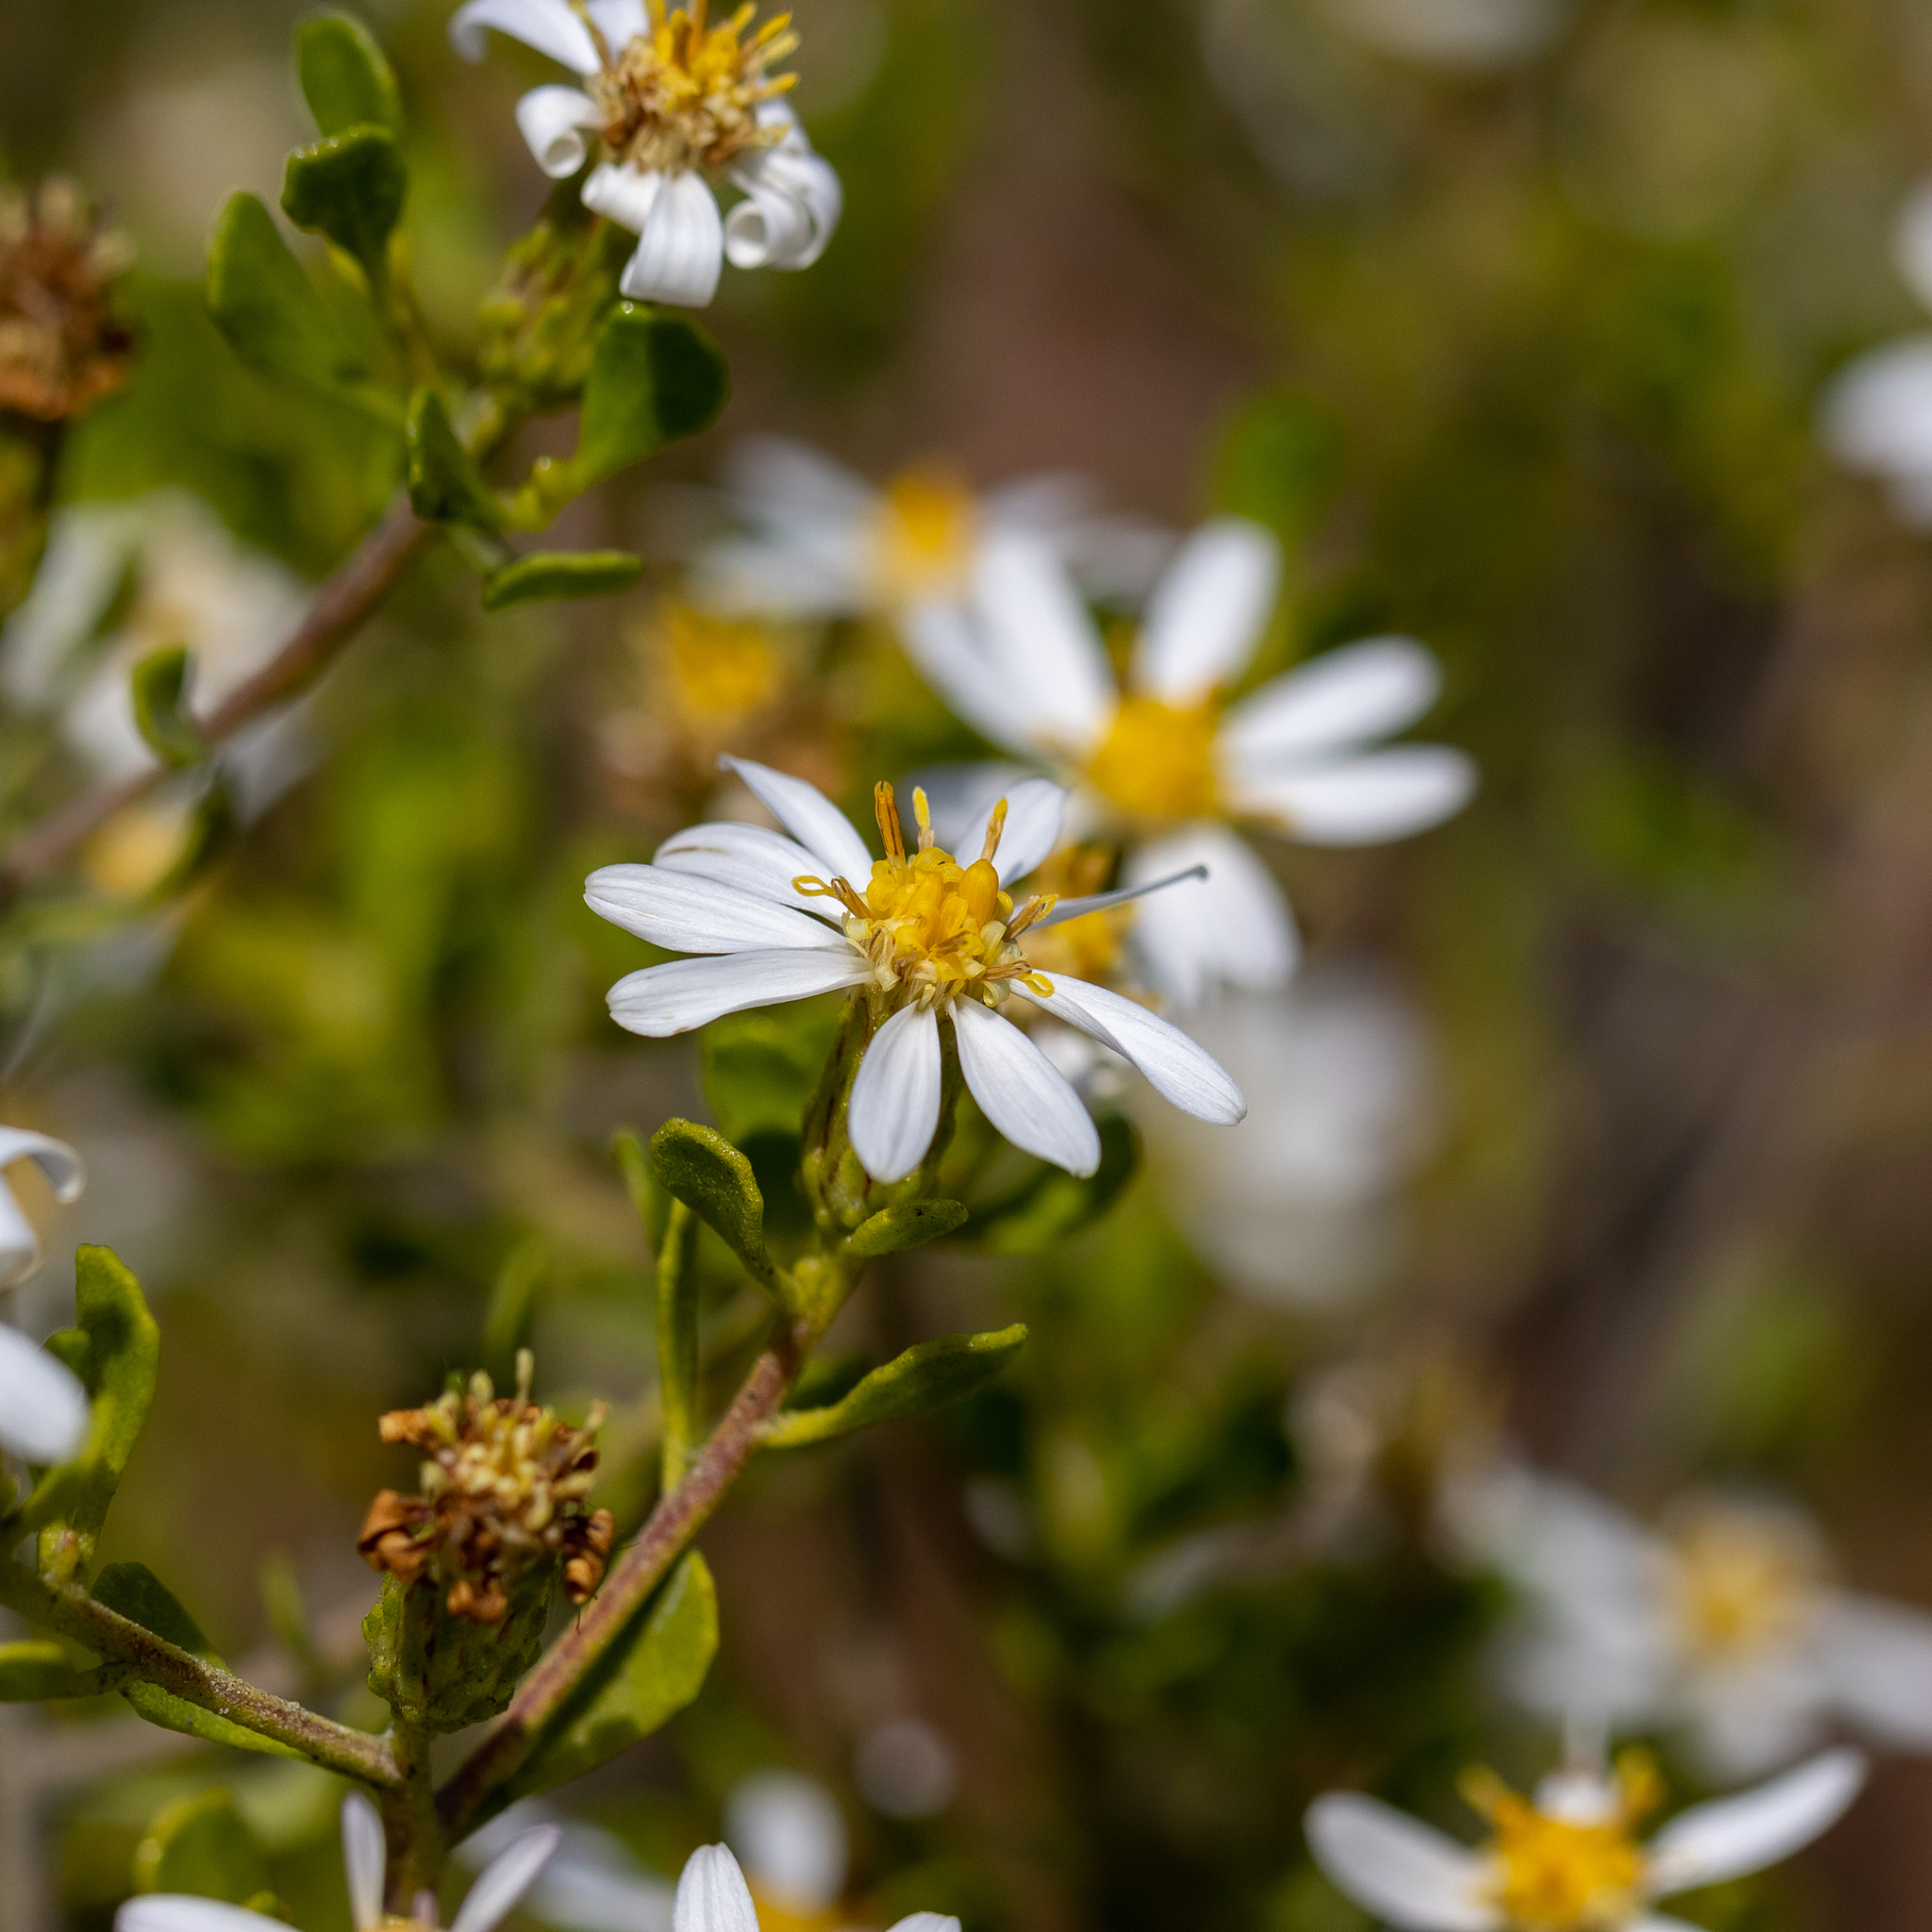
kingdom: Plantae
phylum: Tracheophyta
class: Magnoliopsida
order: Asterales
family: Asteraceae
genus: Walsholaria
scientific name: Walsholaria muelleri
